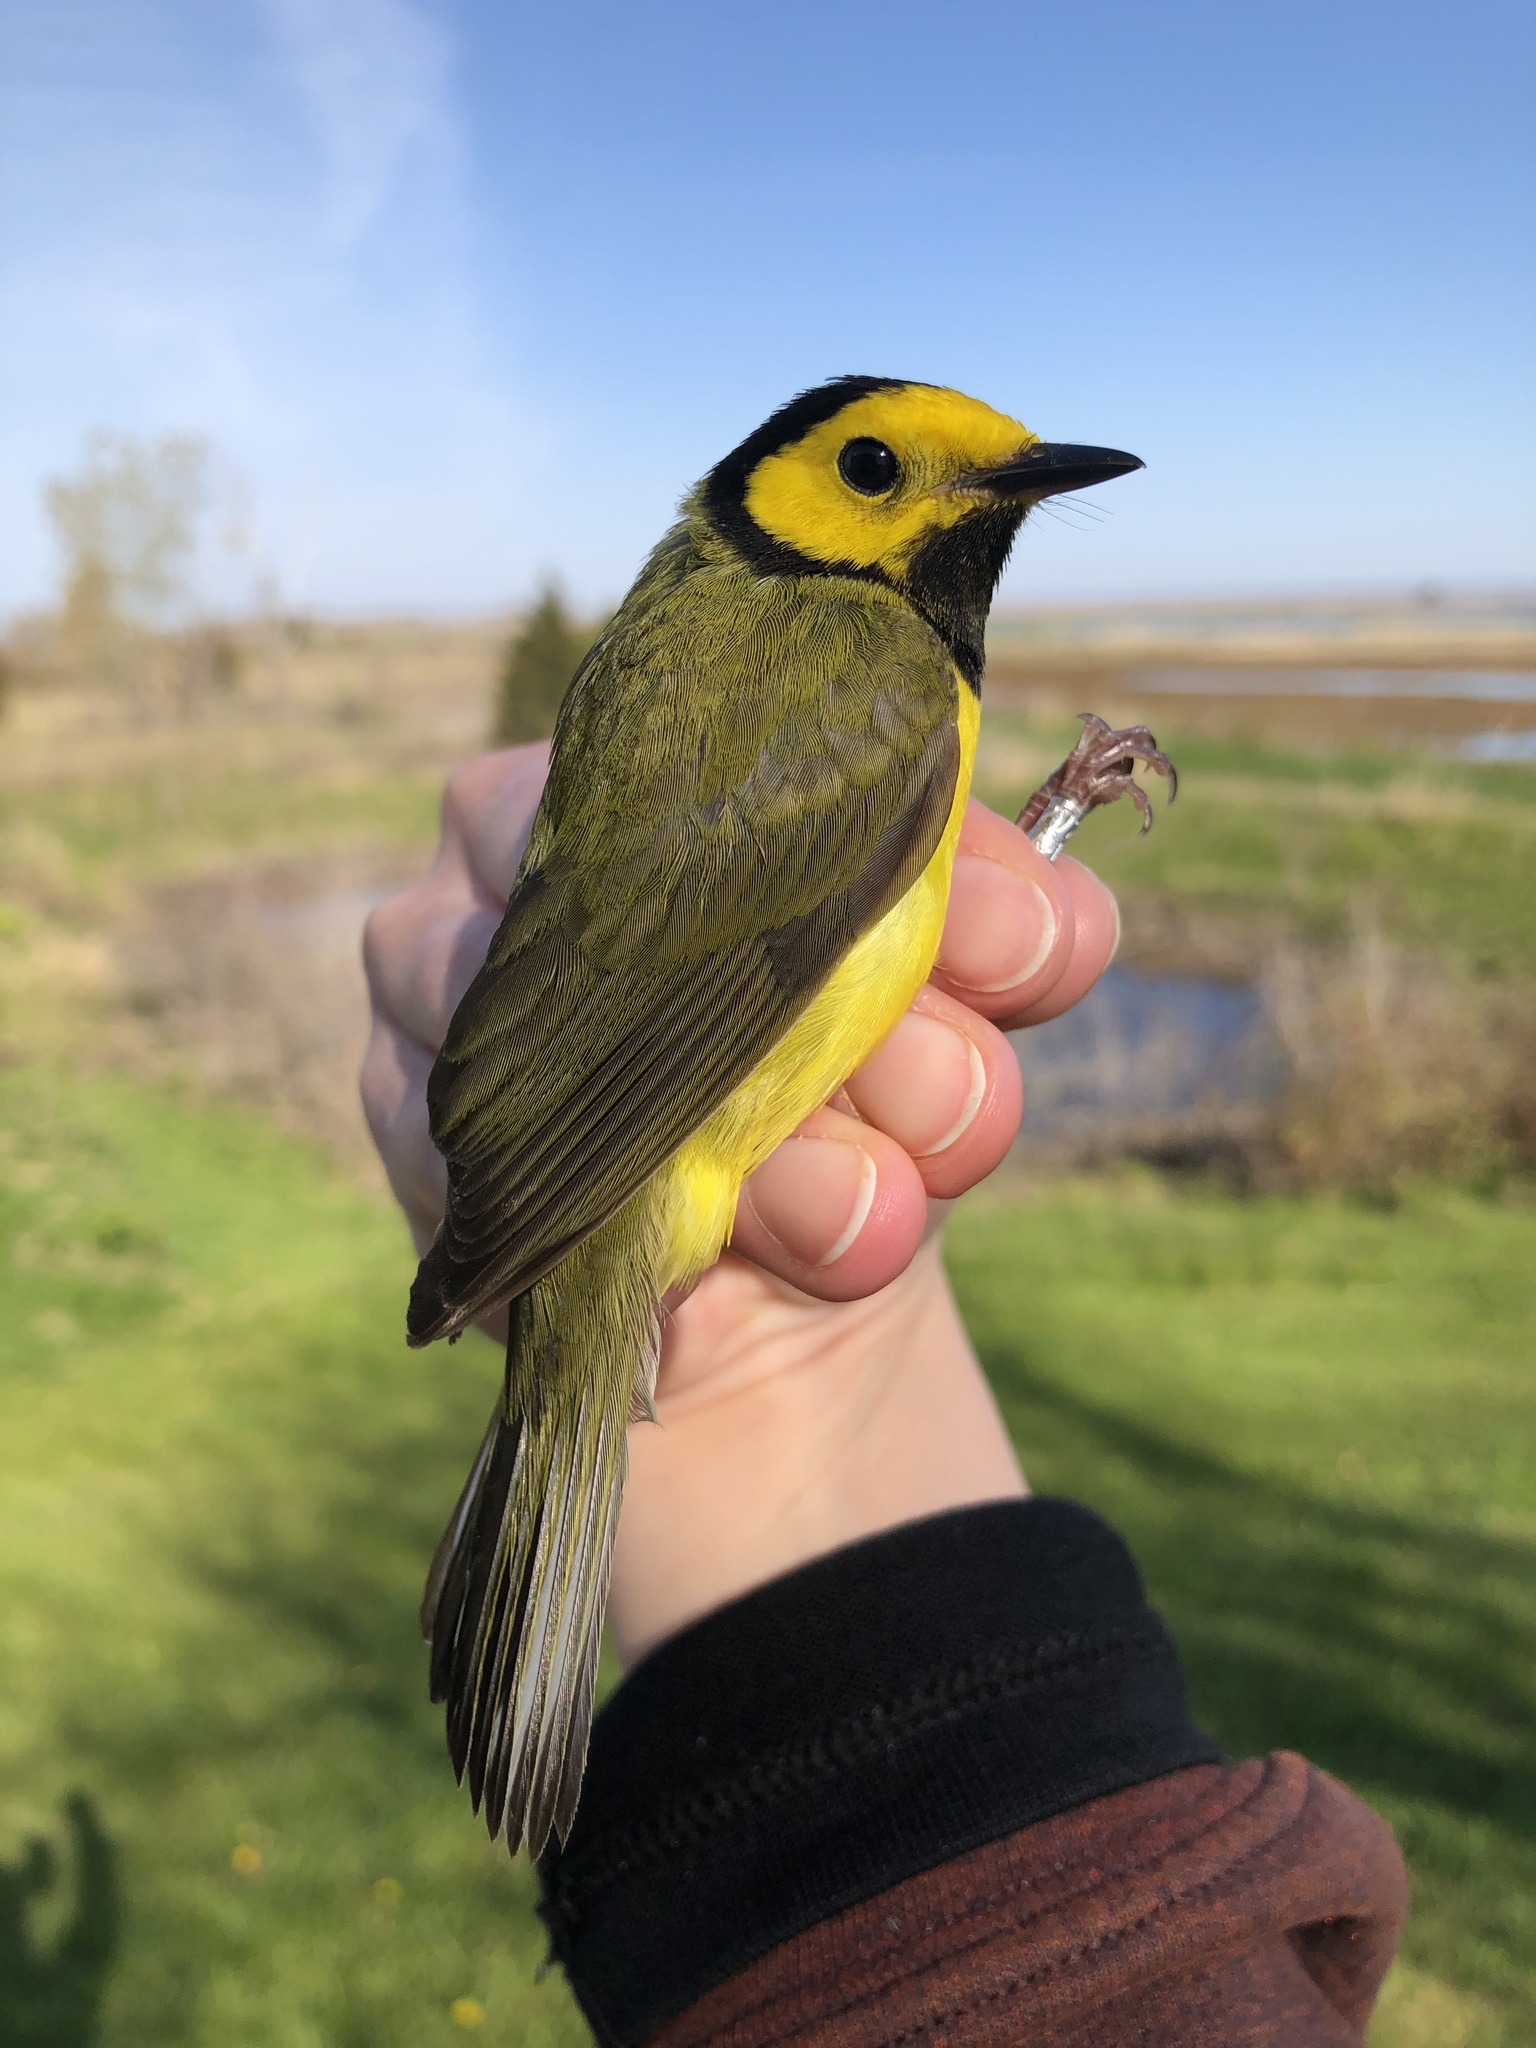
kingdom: Animalia
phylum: Chordata
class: Aves
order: Passeriformes
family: Parulidae
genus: Setophaga
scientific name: Setophaga citrina
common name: Hooded warbler
